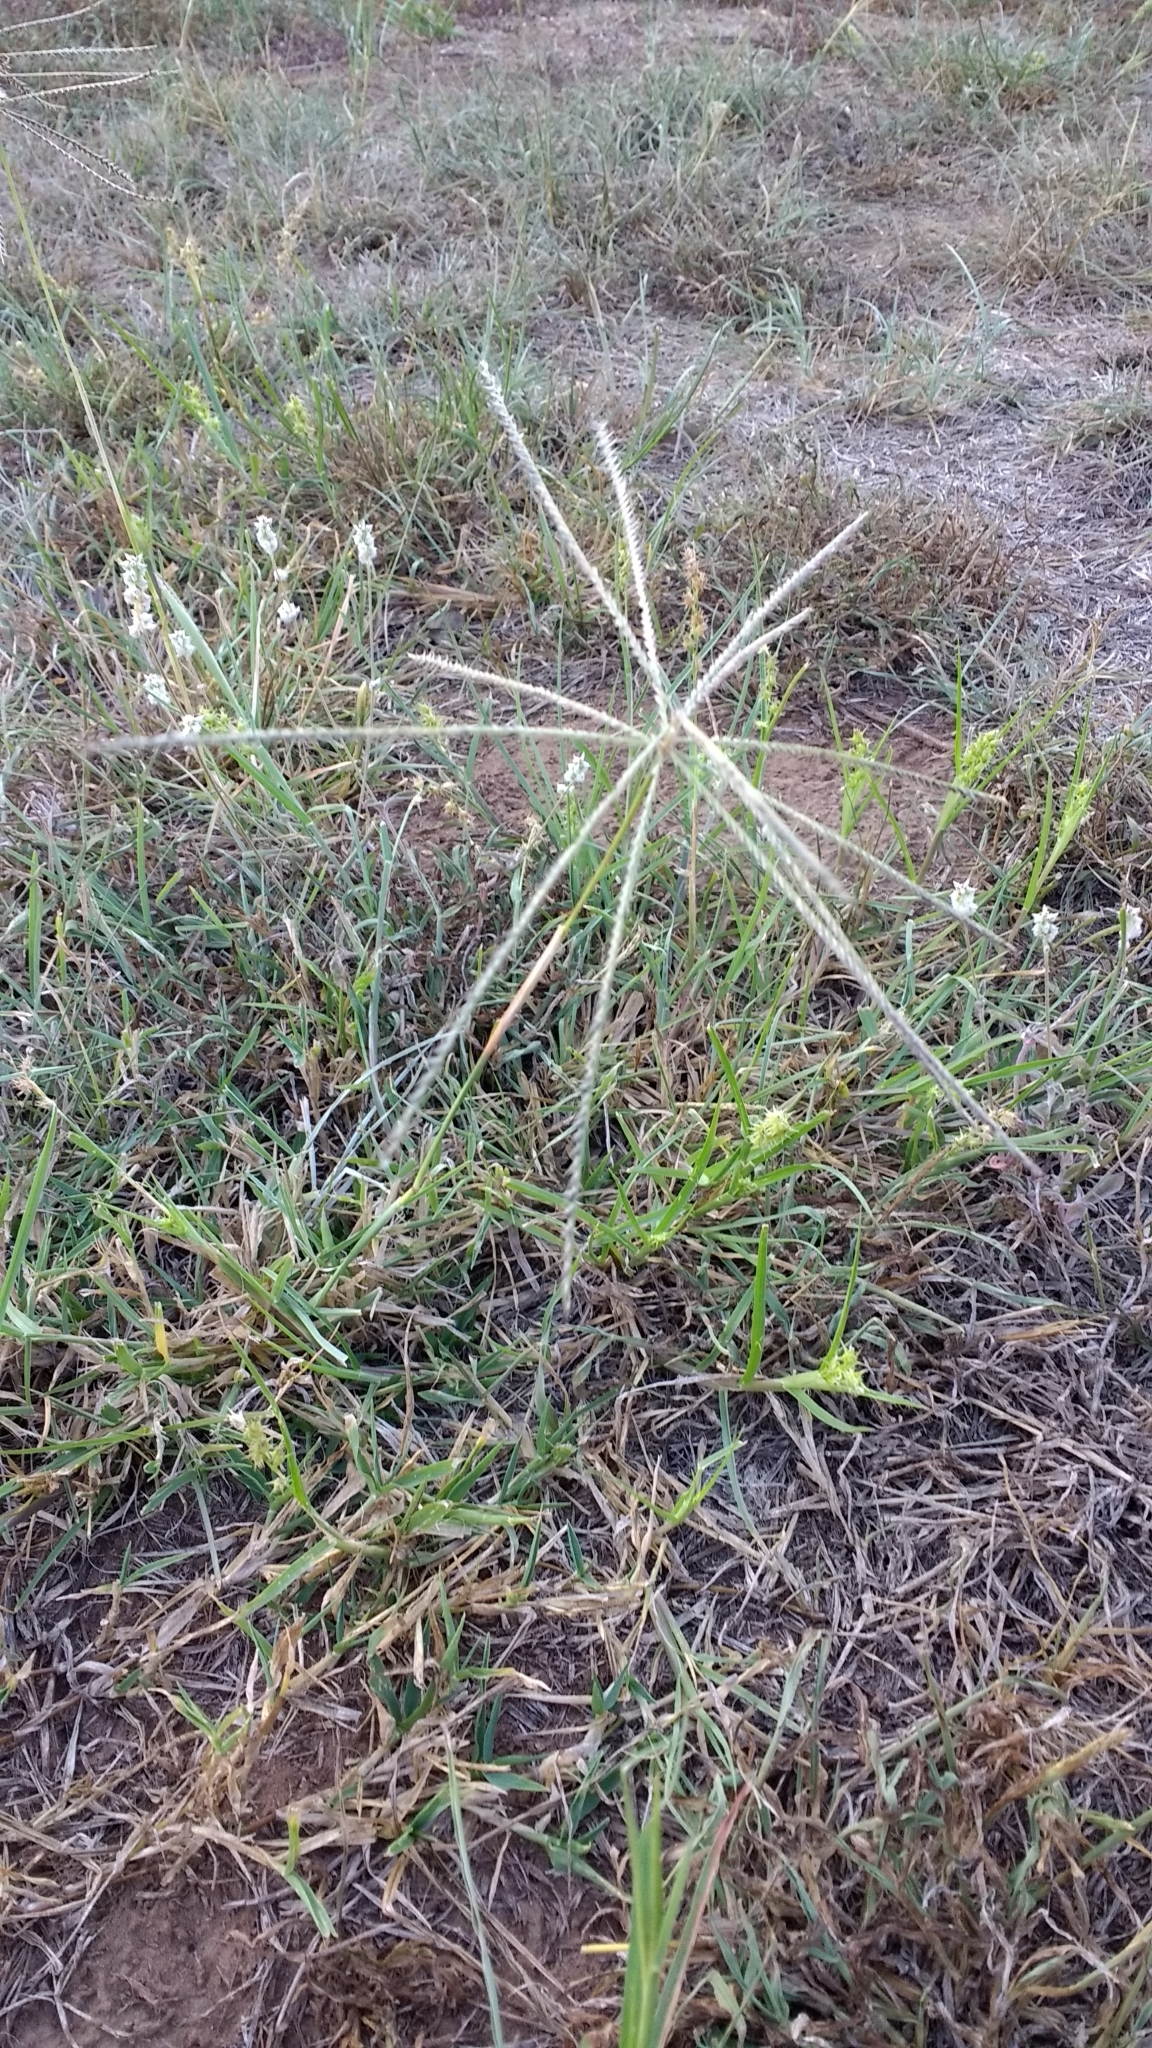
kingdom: Plantae
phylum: Tracheophyta
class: Liliopsida
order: Poales
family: Poaceae
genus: Chloris
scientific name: Chloris verticillata
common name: Tumble windmill grass
